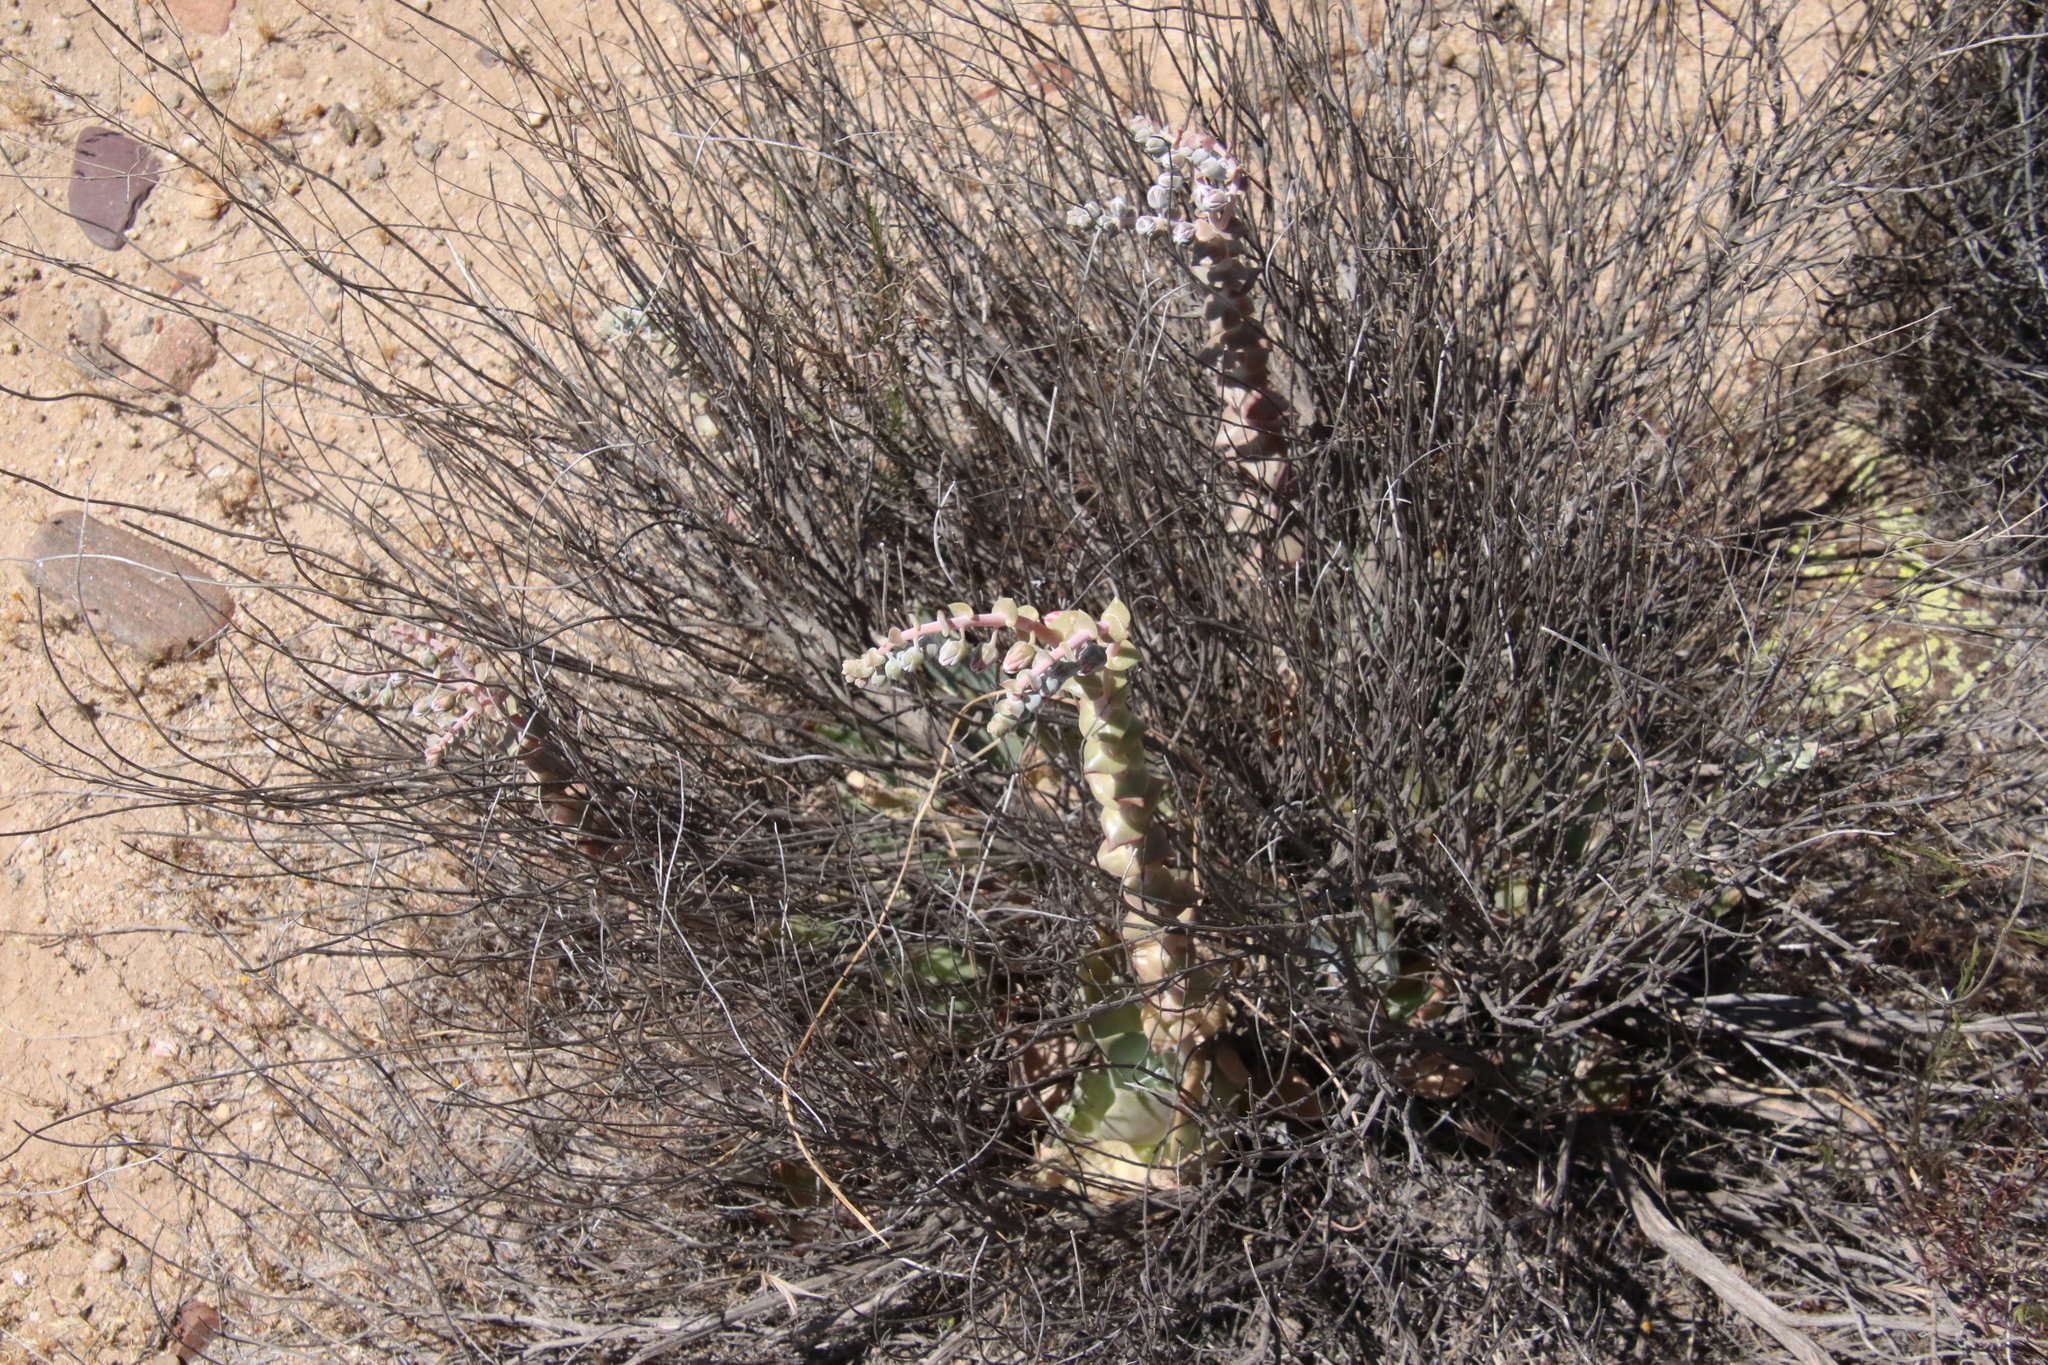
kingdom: Plantae
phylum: Tracheophyta
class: Magnoliopsida
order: Saxifragales
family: Crassulaceae
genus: Dudleya
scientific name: Dudleya arizonica
